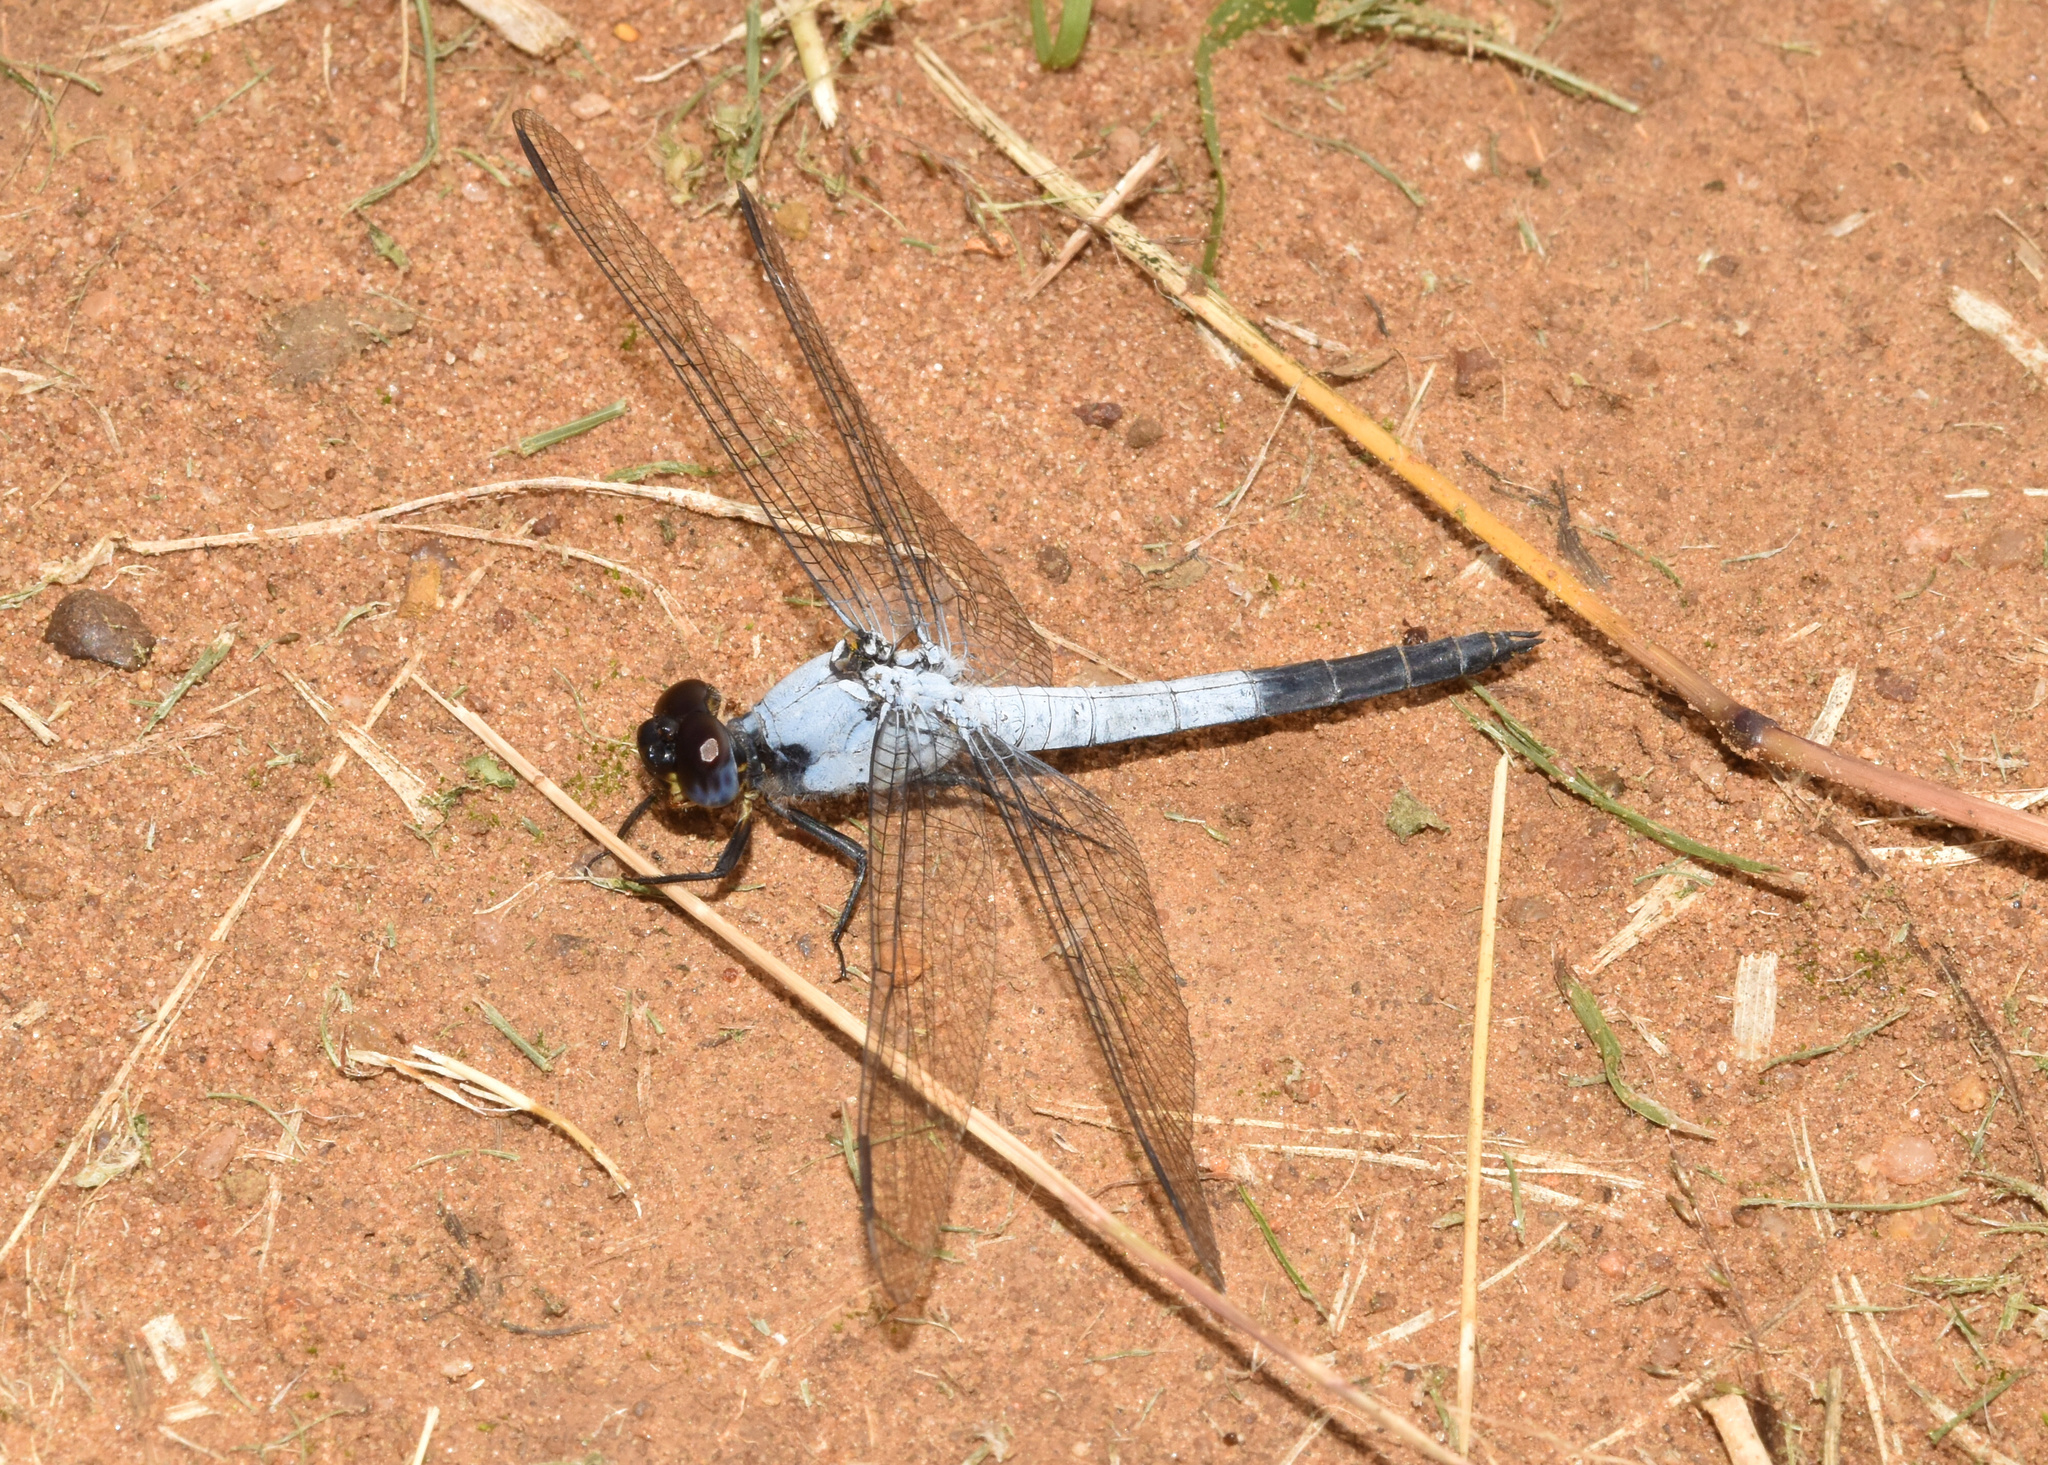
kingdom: Animalia
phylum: Arthropoda
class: Insecta
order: Odonata
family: Libellulidae
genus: Nesciothemis
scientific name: Nesciothemis farinosa
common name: Eastern blacktail
